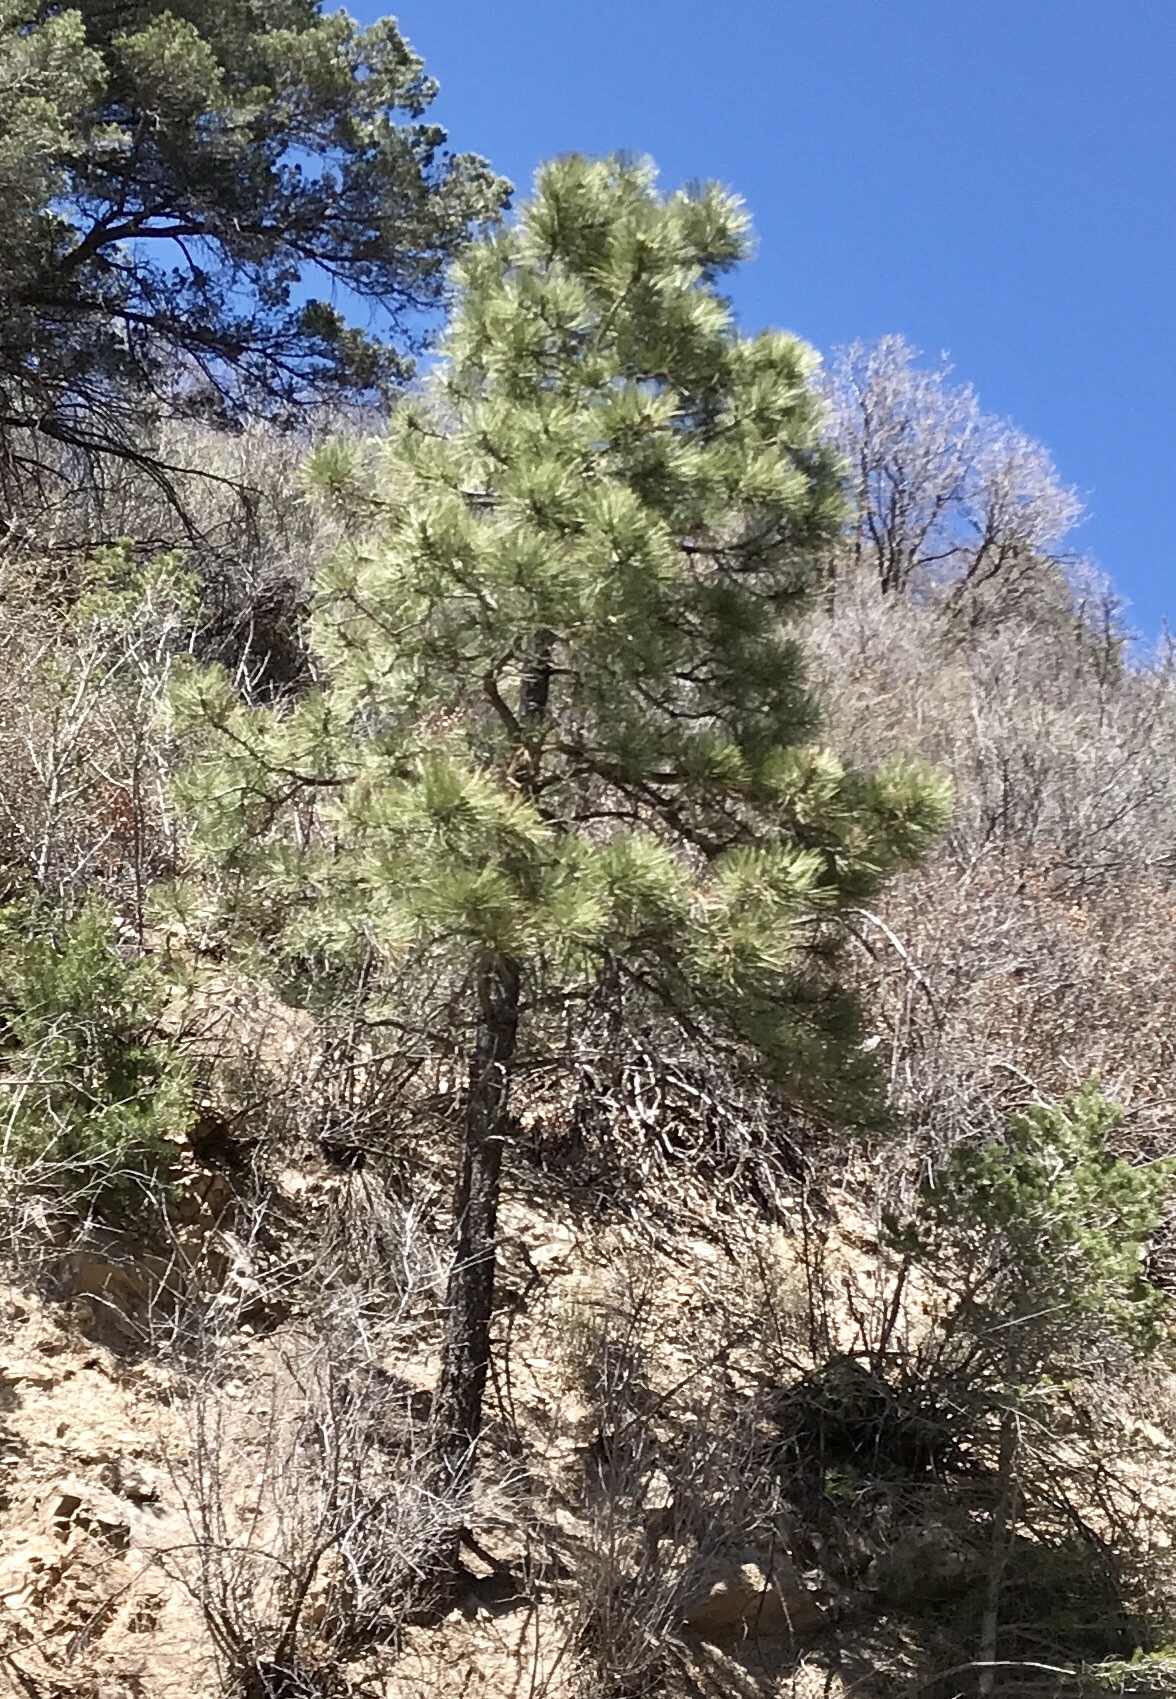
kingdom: Plantae
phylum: Tracheophyta
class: Pinopsida
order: Pinales
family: Pinaceae
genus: Pinus
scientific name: Pinus ponderosa
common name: Western yellow-pine
